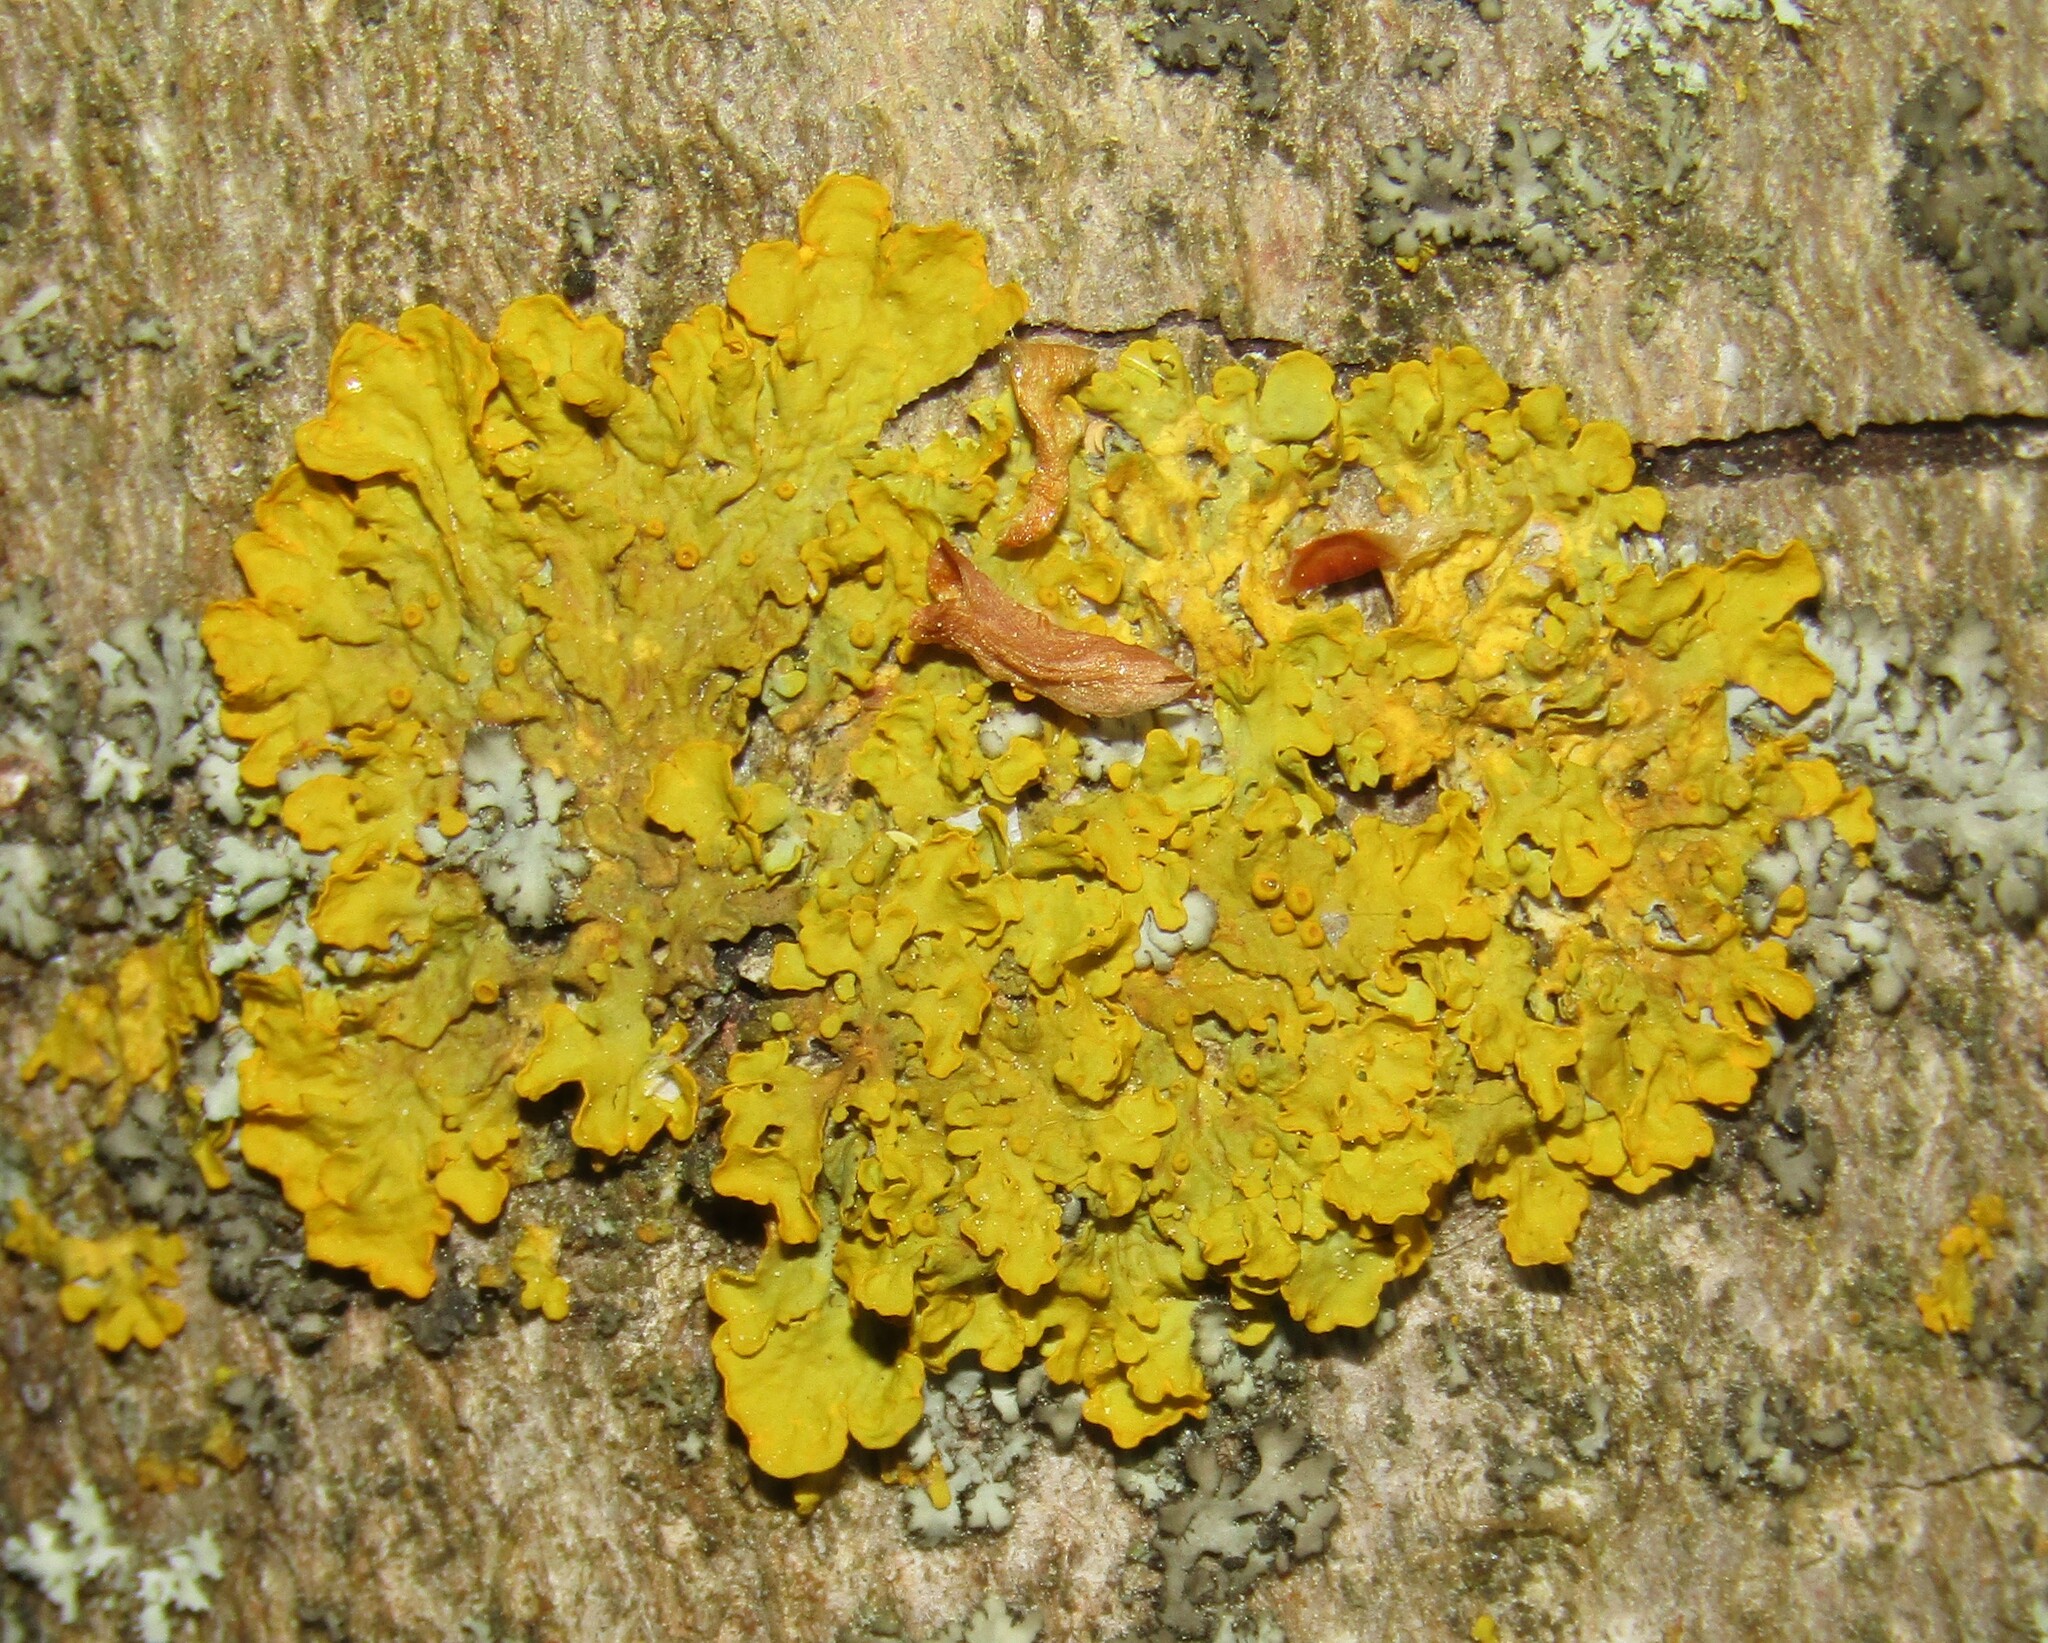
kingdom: Fungi
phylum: Ascomycota
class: Lecanoromycetes
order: Teloschistales
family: Teloschistaceae
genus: Xanthoria
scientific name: Xanthoria parietina
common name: Common orange lichen
